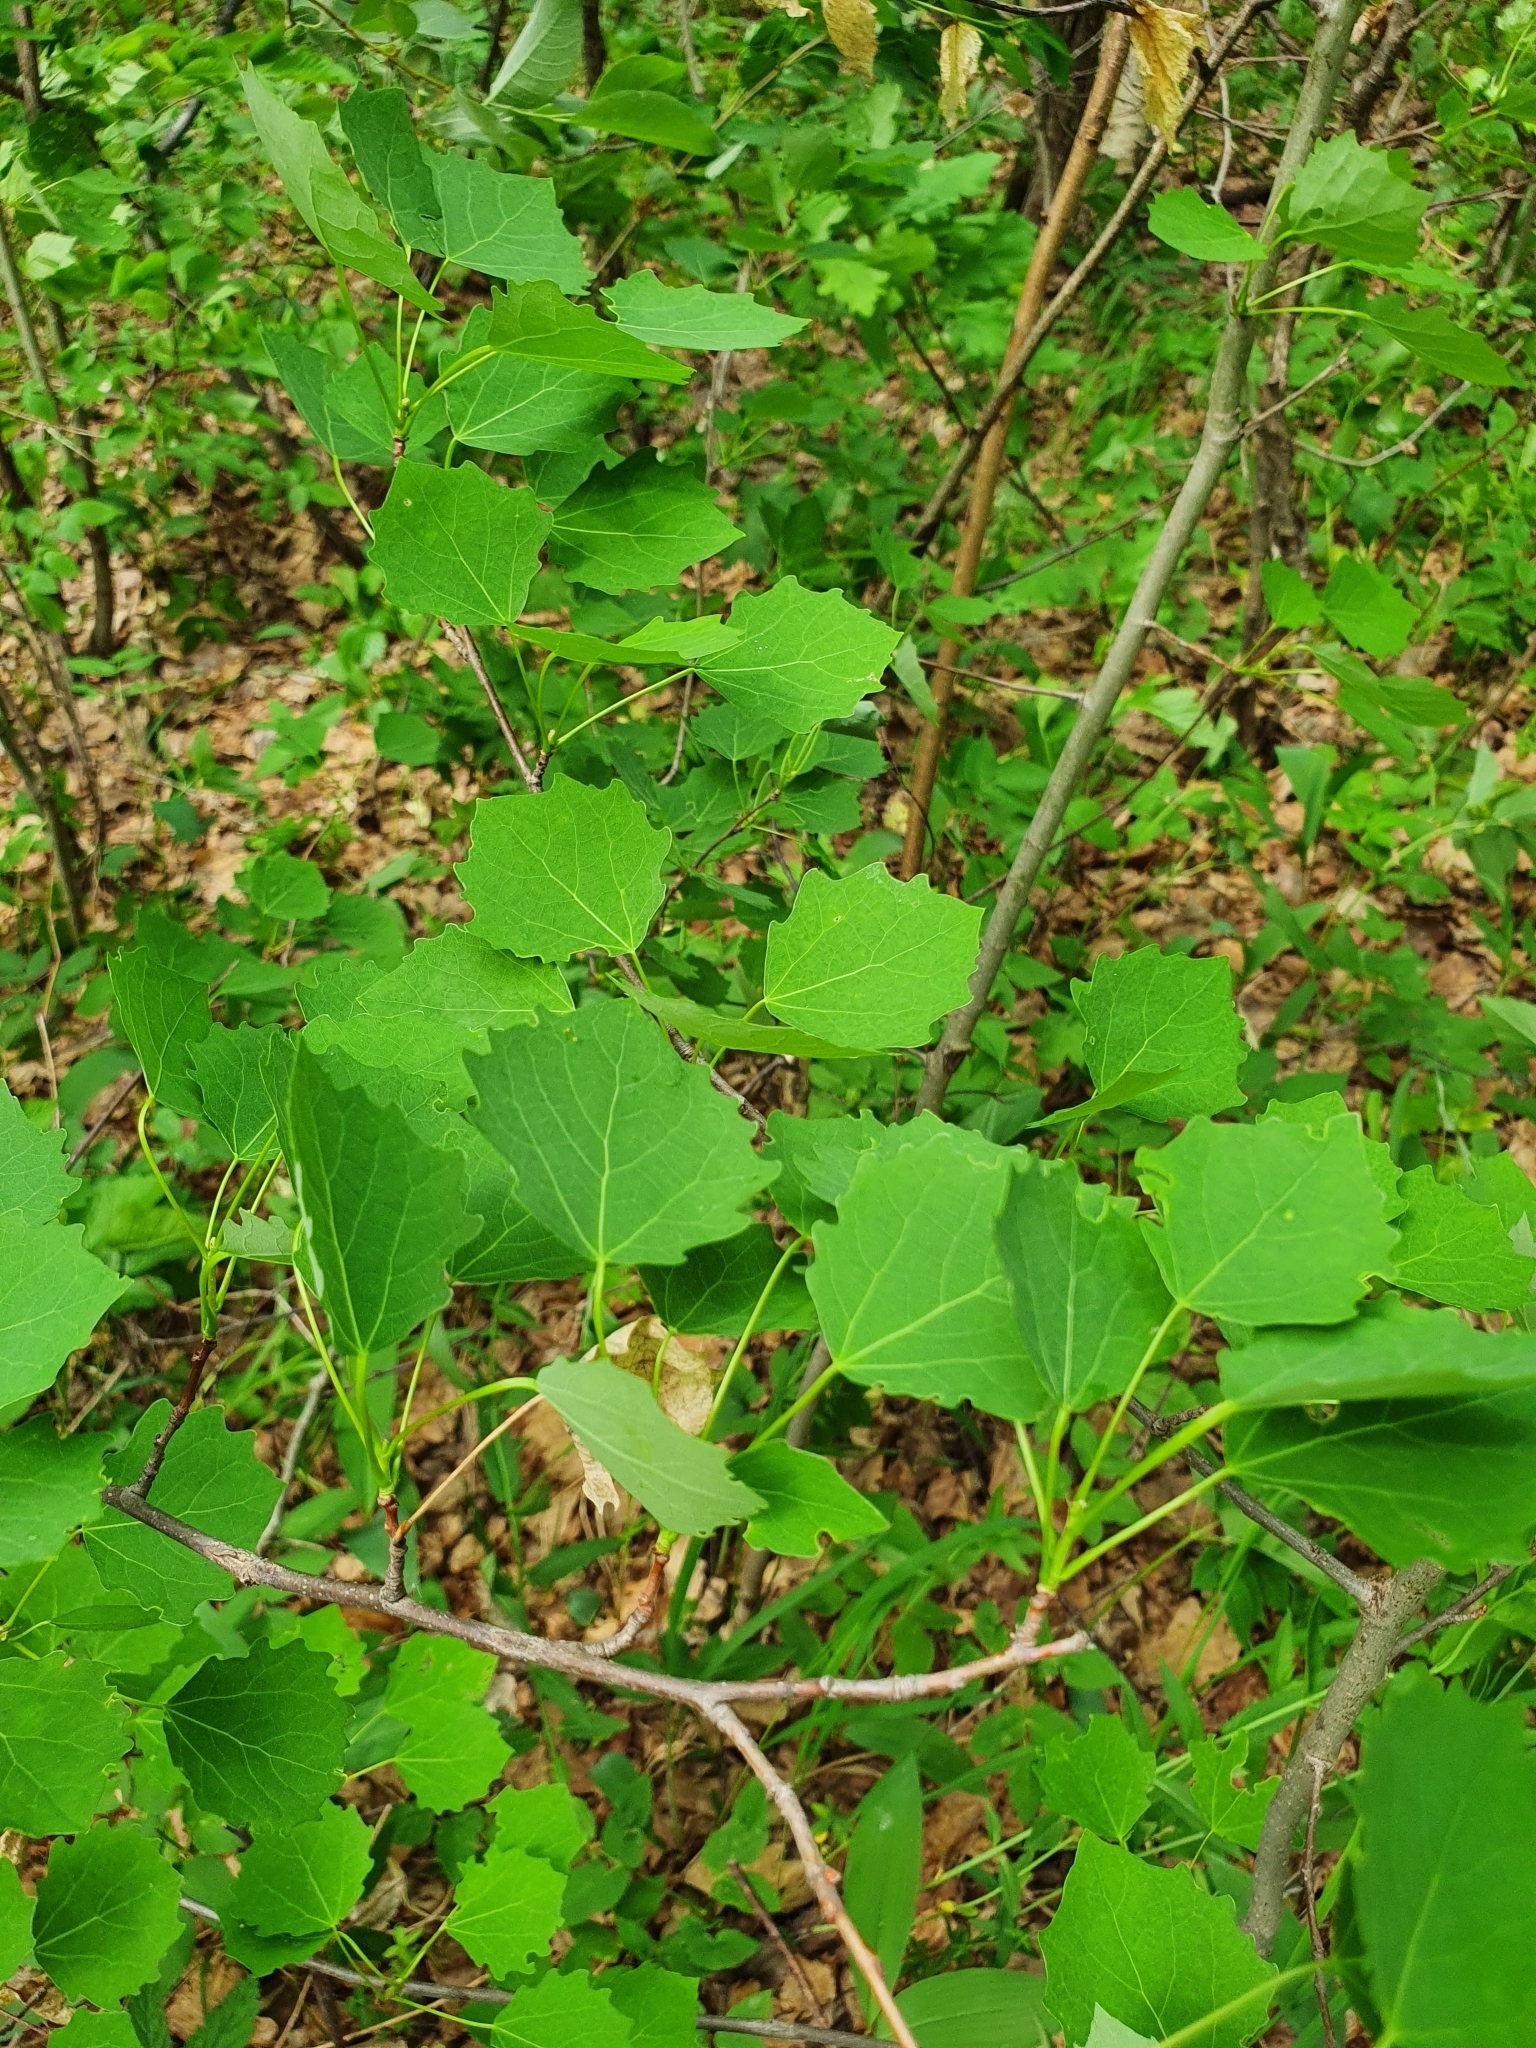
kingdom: Plantae
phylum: Tracheophyta
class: Magnoliopsida
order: Malpighiales
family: Salicaceae
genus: Populus
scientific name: Populus tremula
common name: European aspen
